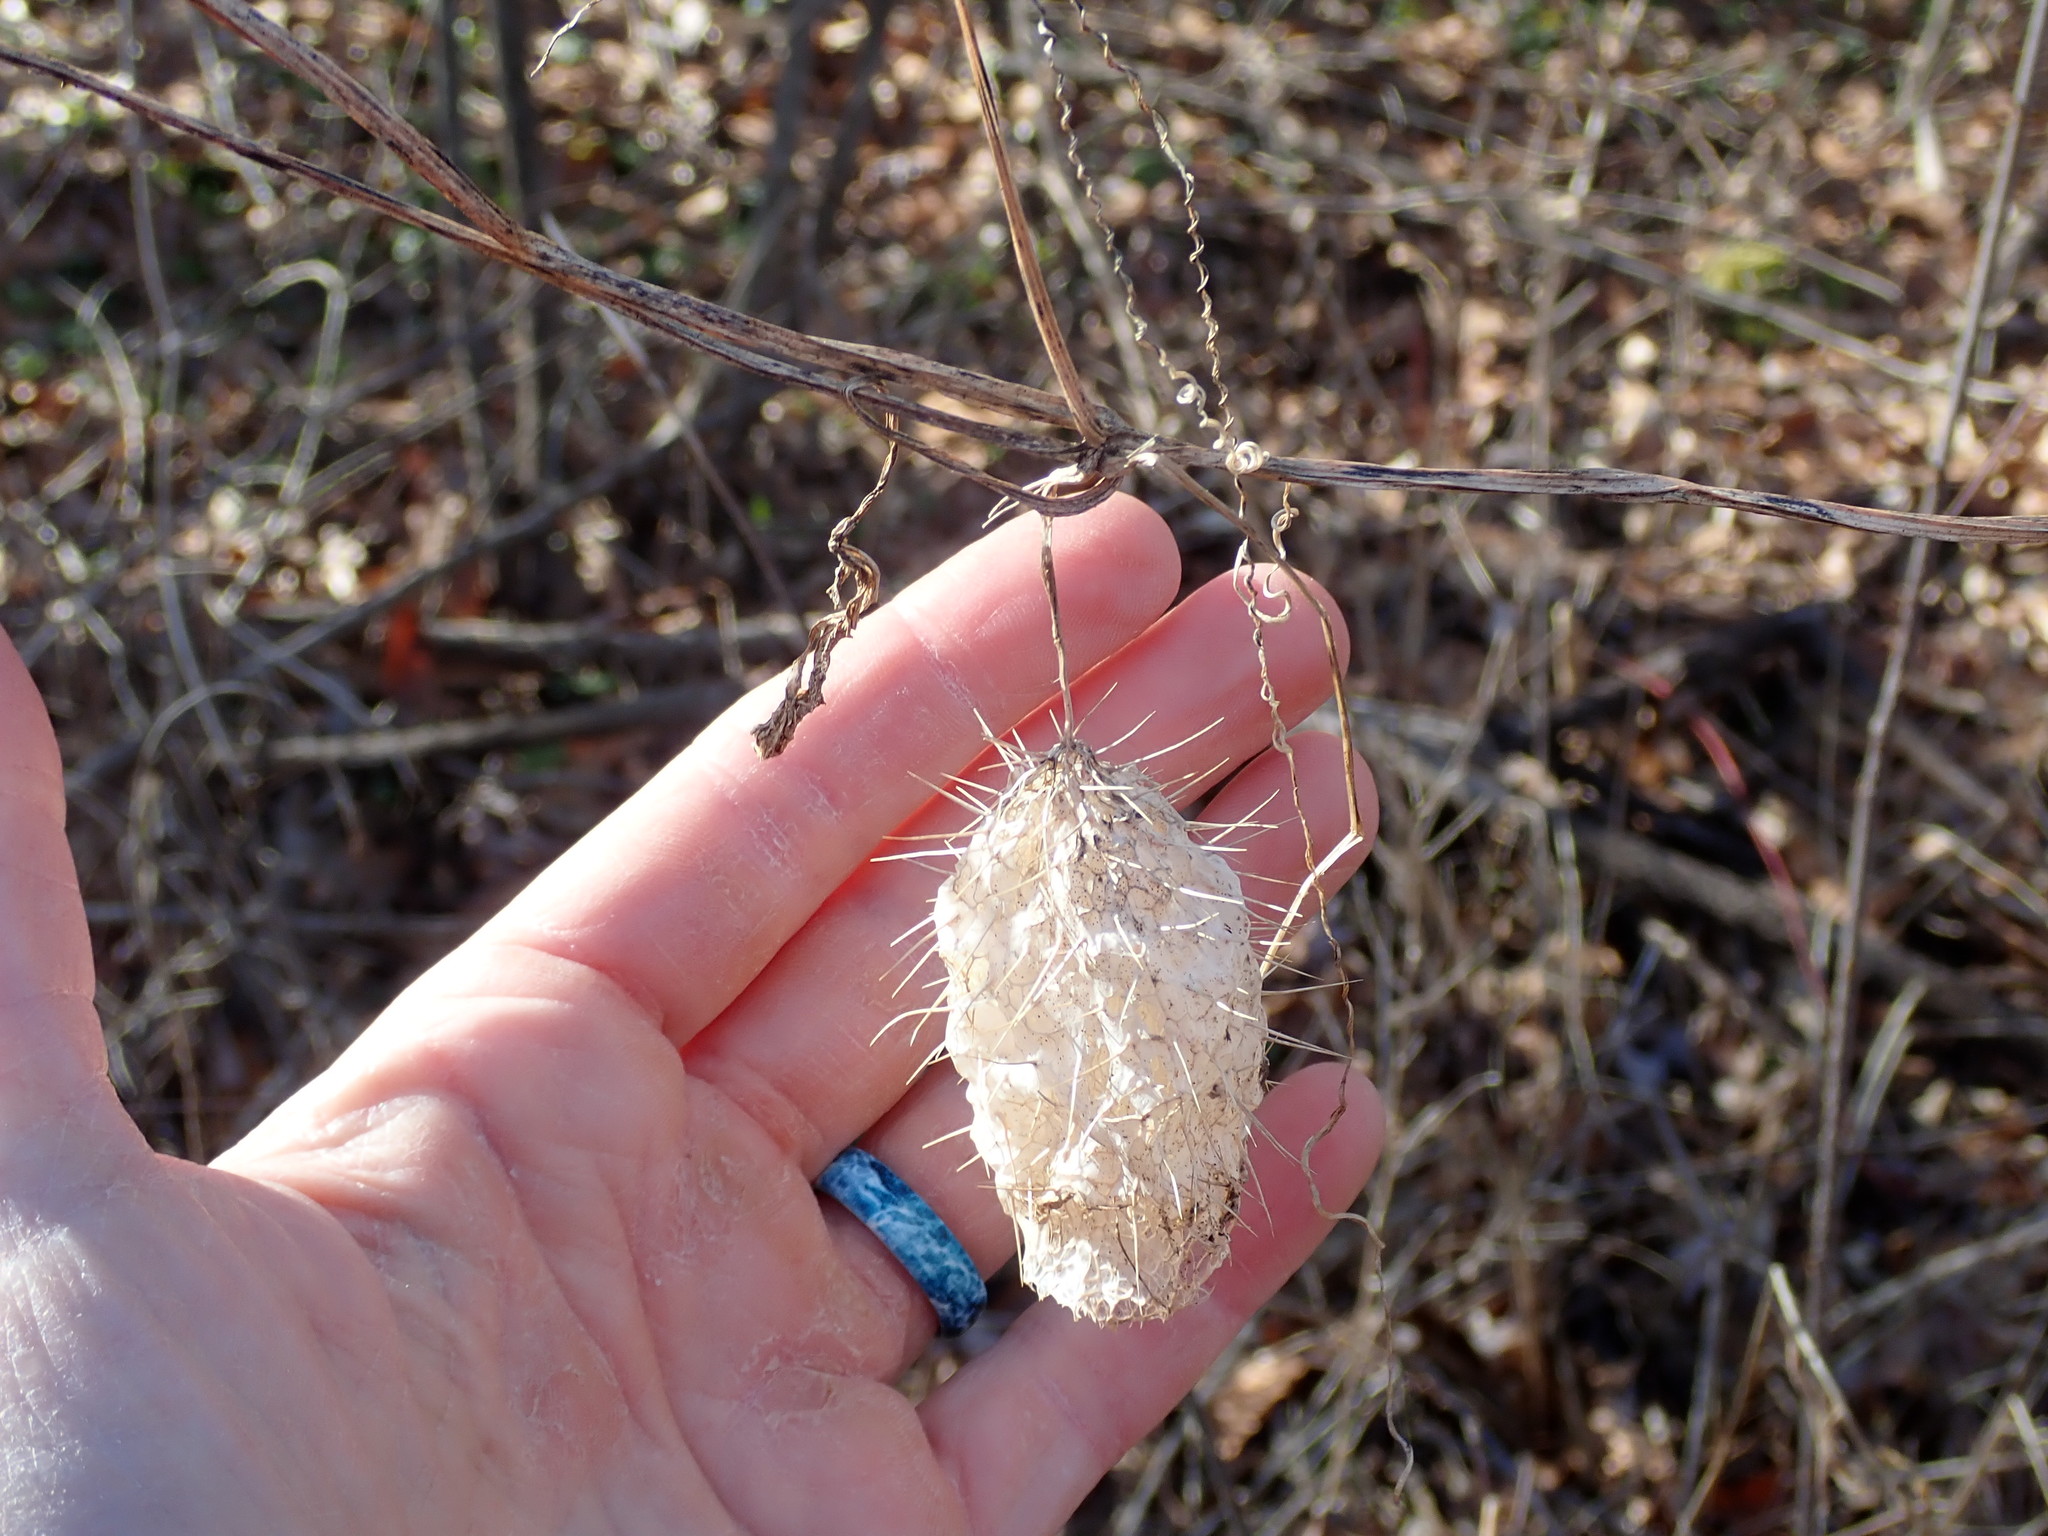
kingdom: Plantae
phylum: Tracheophyta
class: Magnoliopsida
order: Cucurbitales
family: Cucurbitaceae
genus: Echinocystis
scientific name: Echinocystis lobata
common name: Wild cucumber
